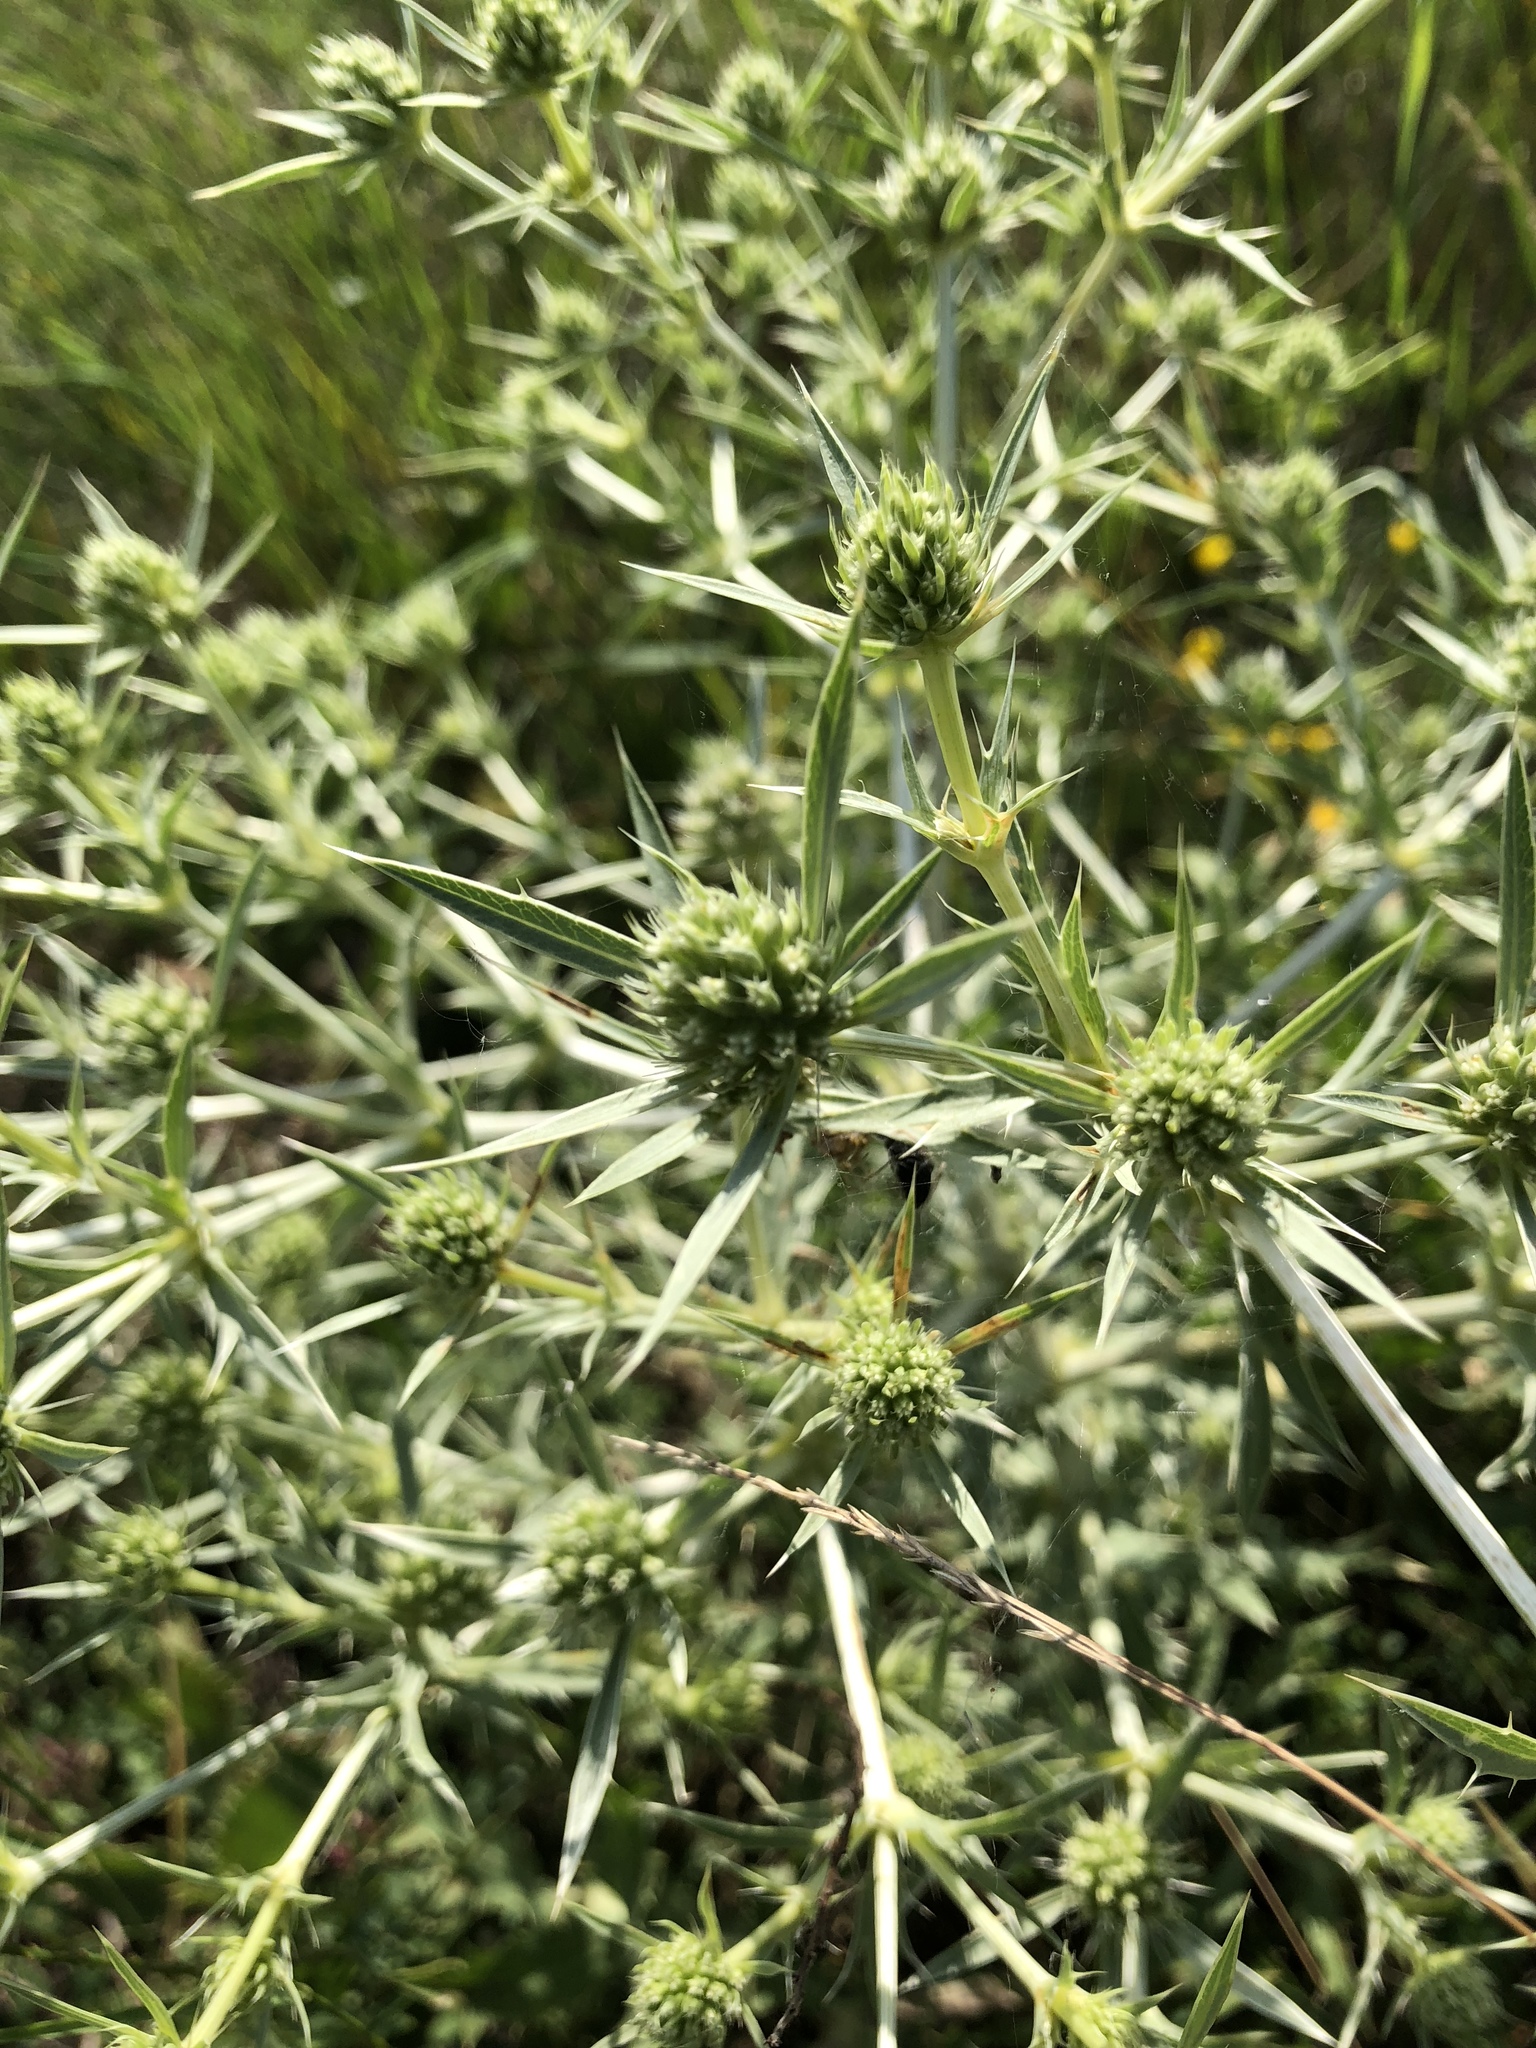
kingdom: Plantae
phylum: Tracheophyta
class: Magnoliopsida
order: Apiales
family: Apiaceae
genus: Eryngium
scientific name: Eryngium campestre
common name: Field eryngo
